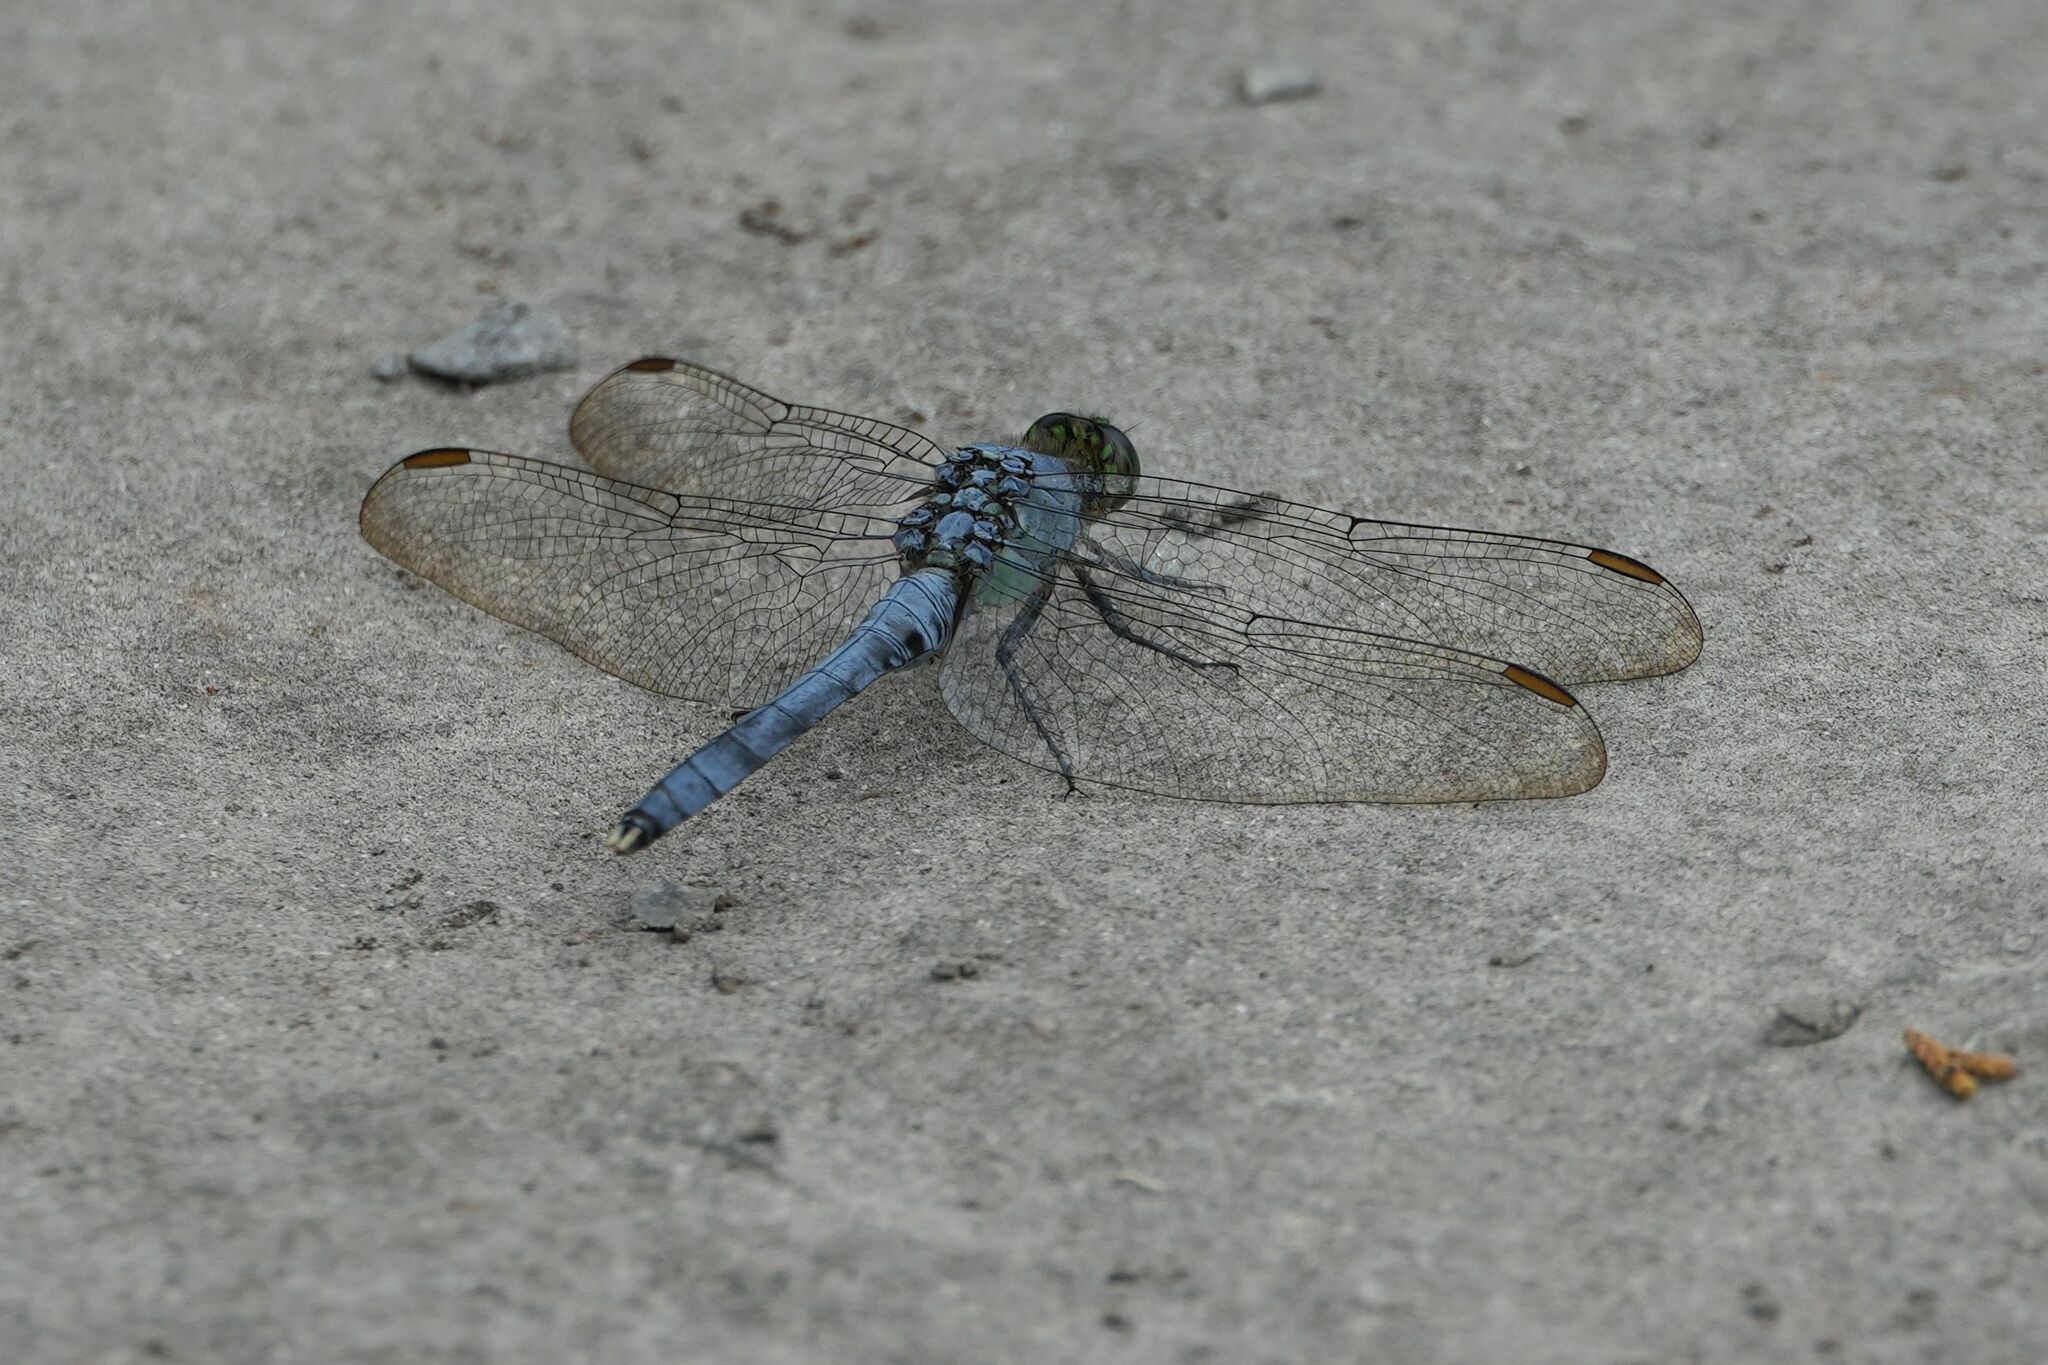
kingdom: Animalia
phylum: Arthropoda
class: Insecta
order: Odonata
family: Libellulidae
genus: Erythemis
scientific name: Erythemis simplicicollis
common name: Eastern pondhawk
